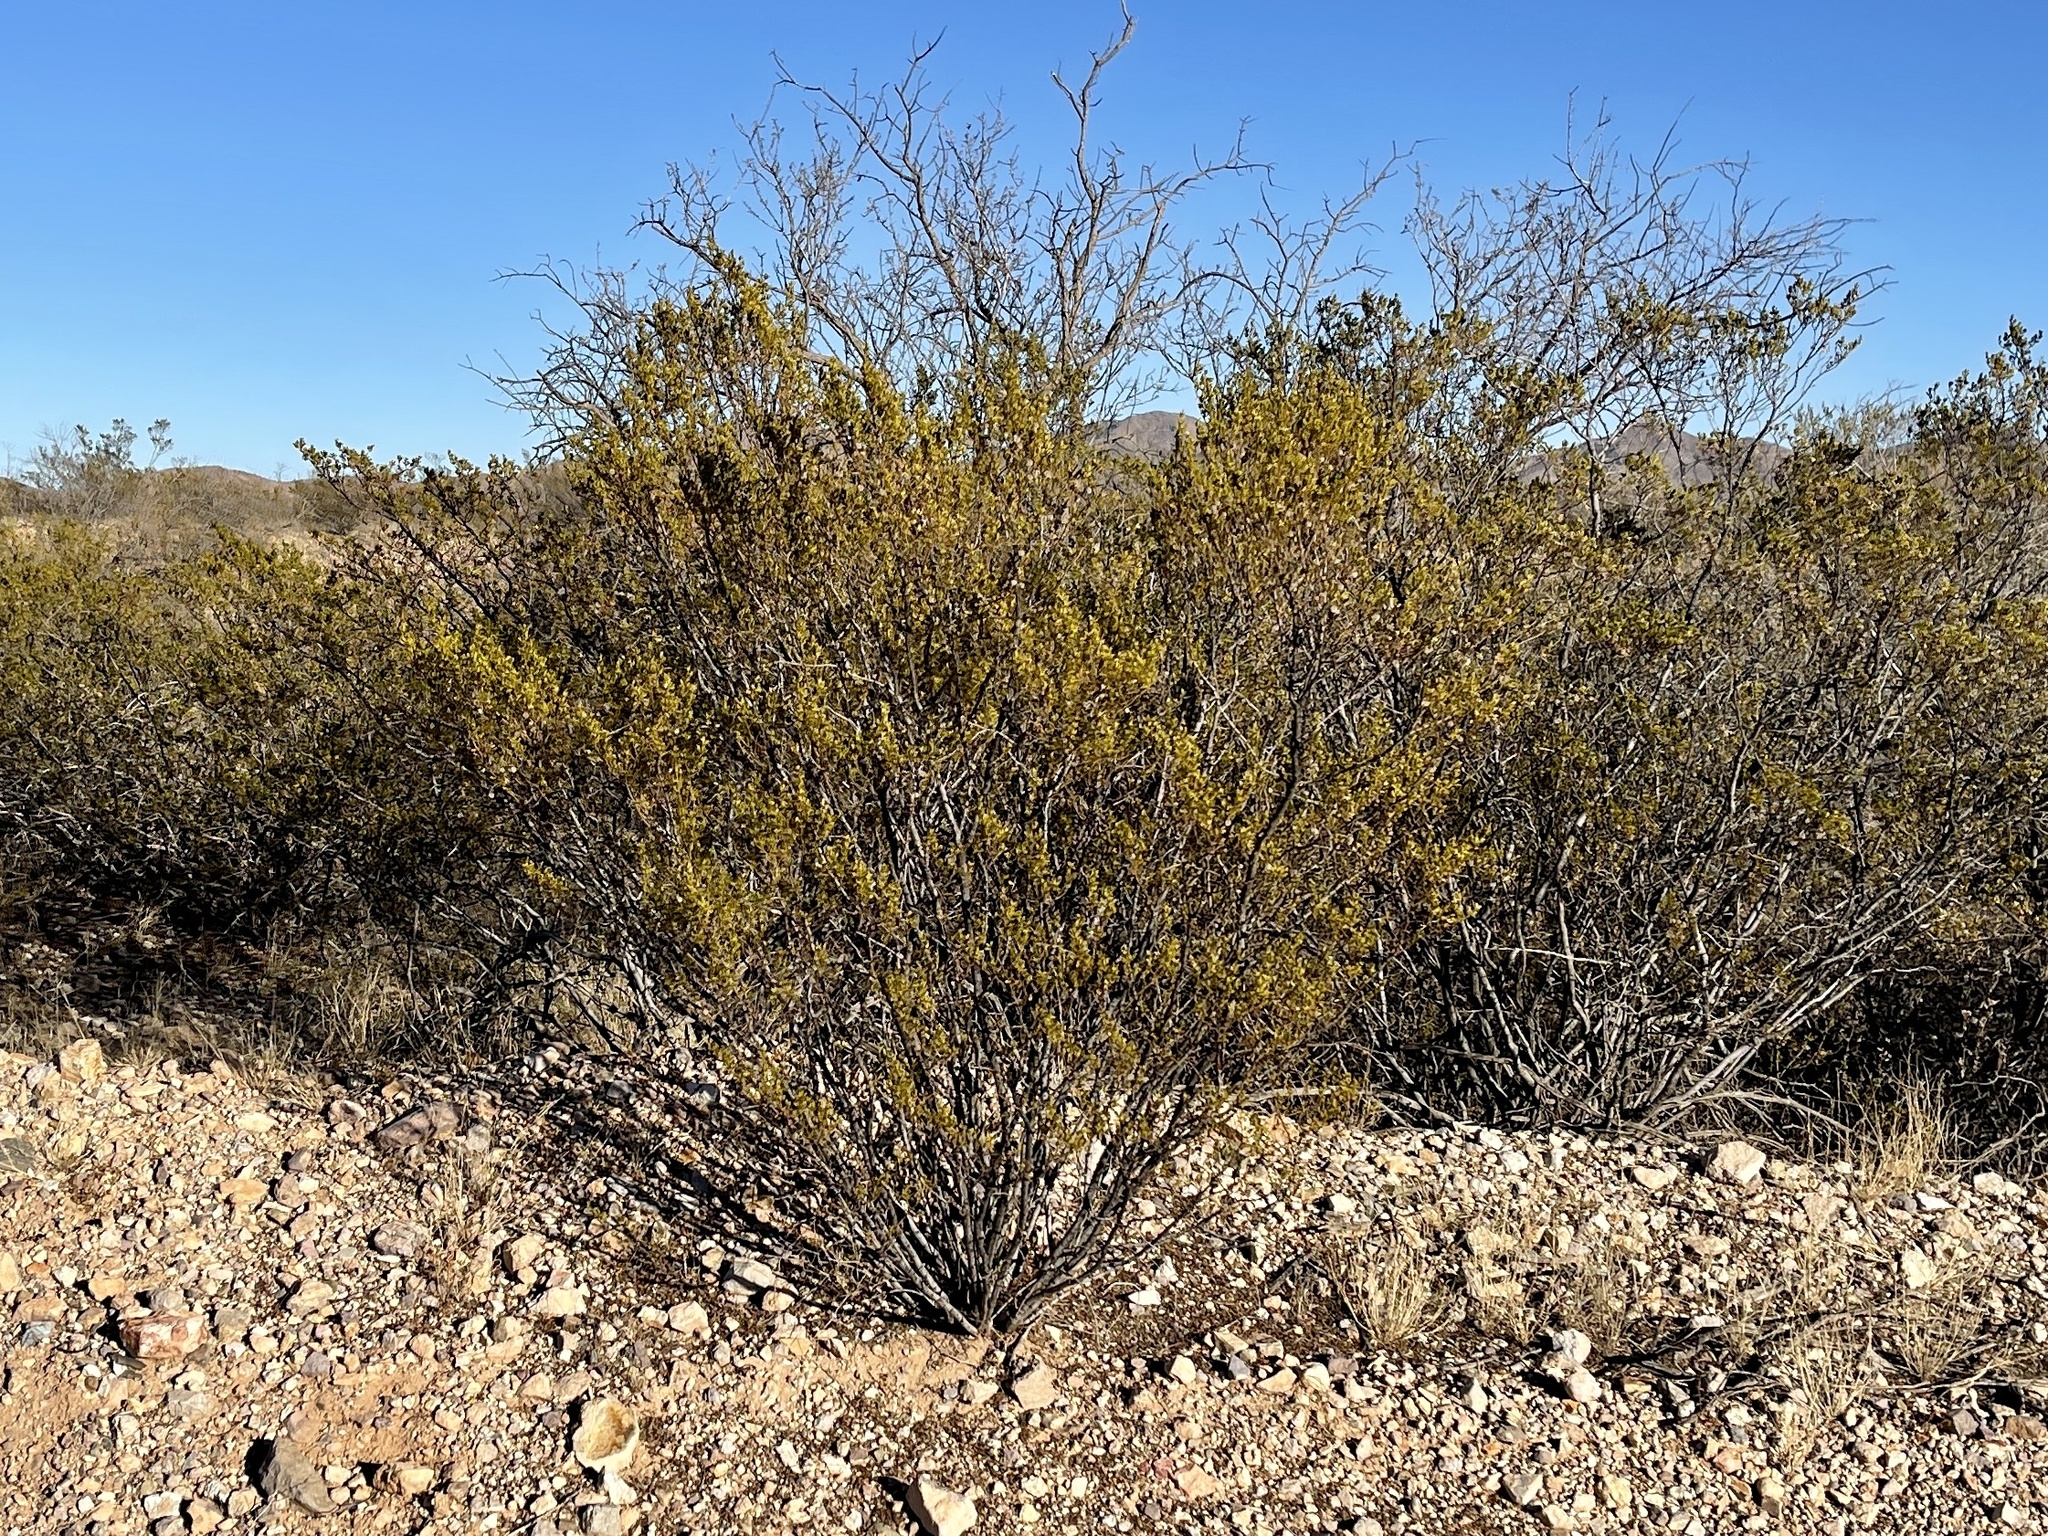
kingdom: Plantae
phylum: Tracheophyta
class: Magnoliopsida
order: Zygophyllales
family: Zygophyllaceae
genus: Larrea
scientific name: Larrea tridentata
